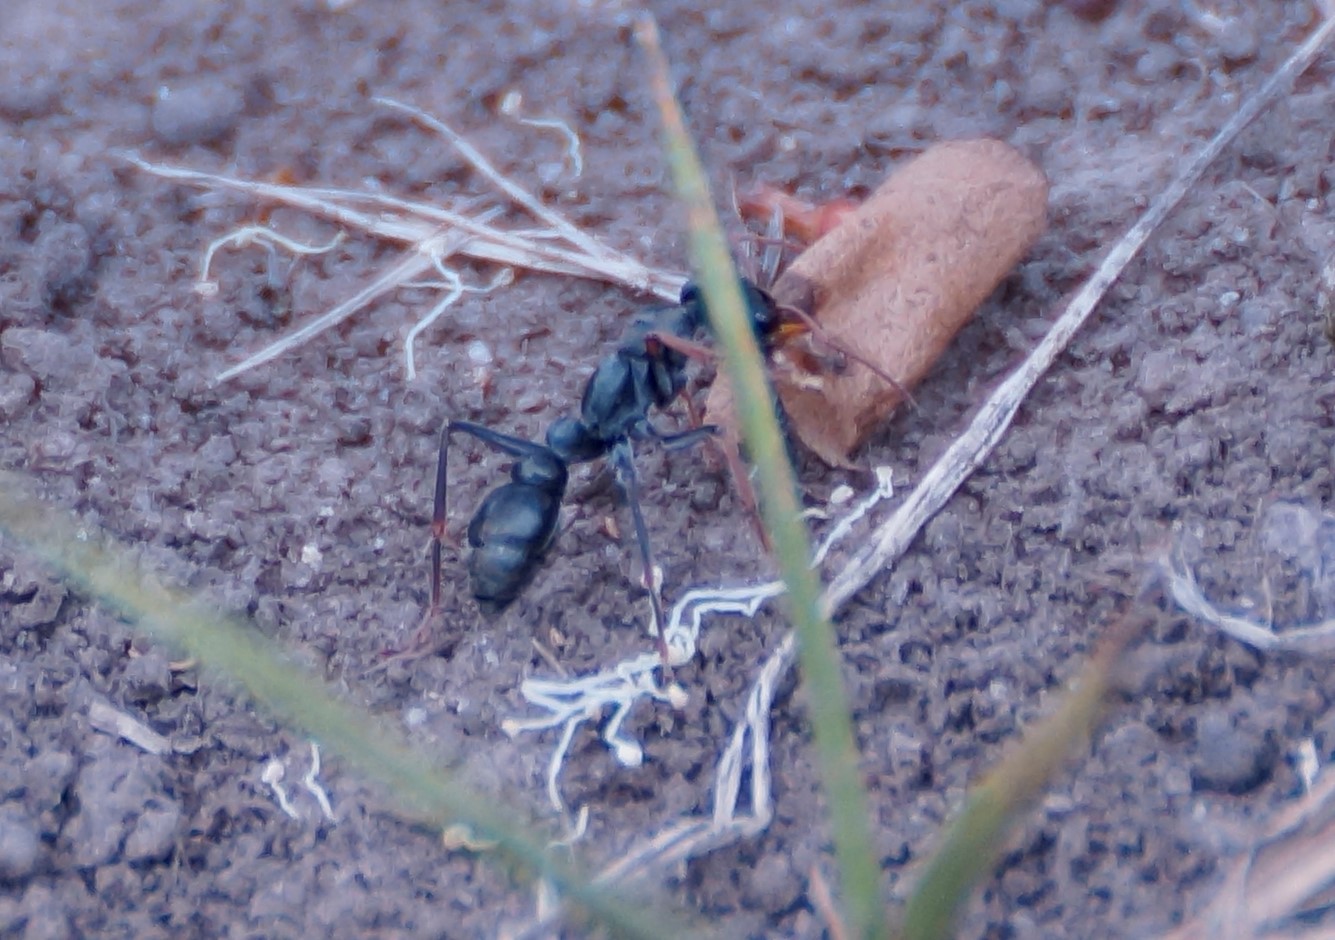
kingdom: Animalia
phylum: Arthropoda
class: Insecta
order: Hymenoptera
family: Formicidae
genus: Myrmecia
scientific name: Myrmecia pilosula
